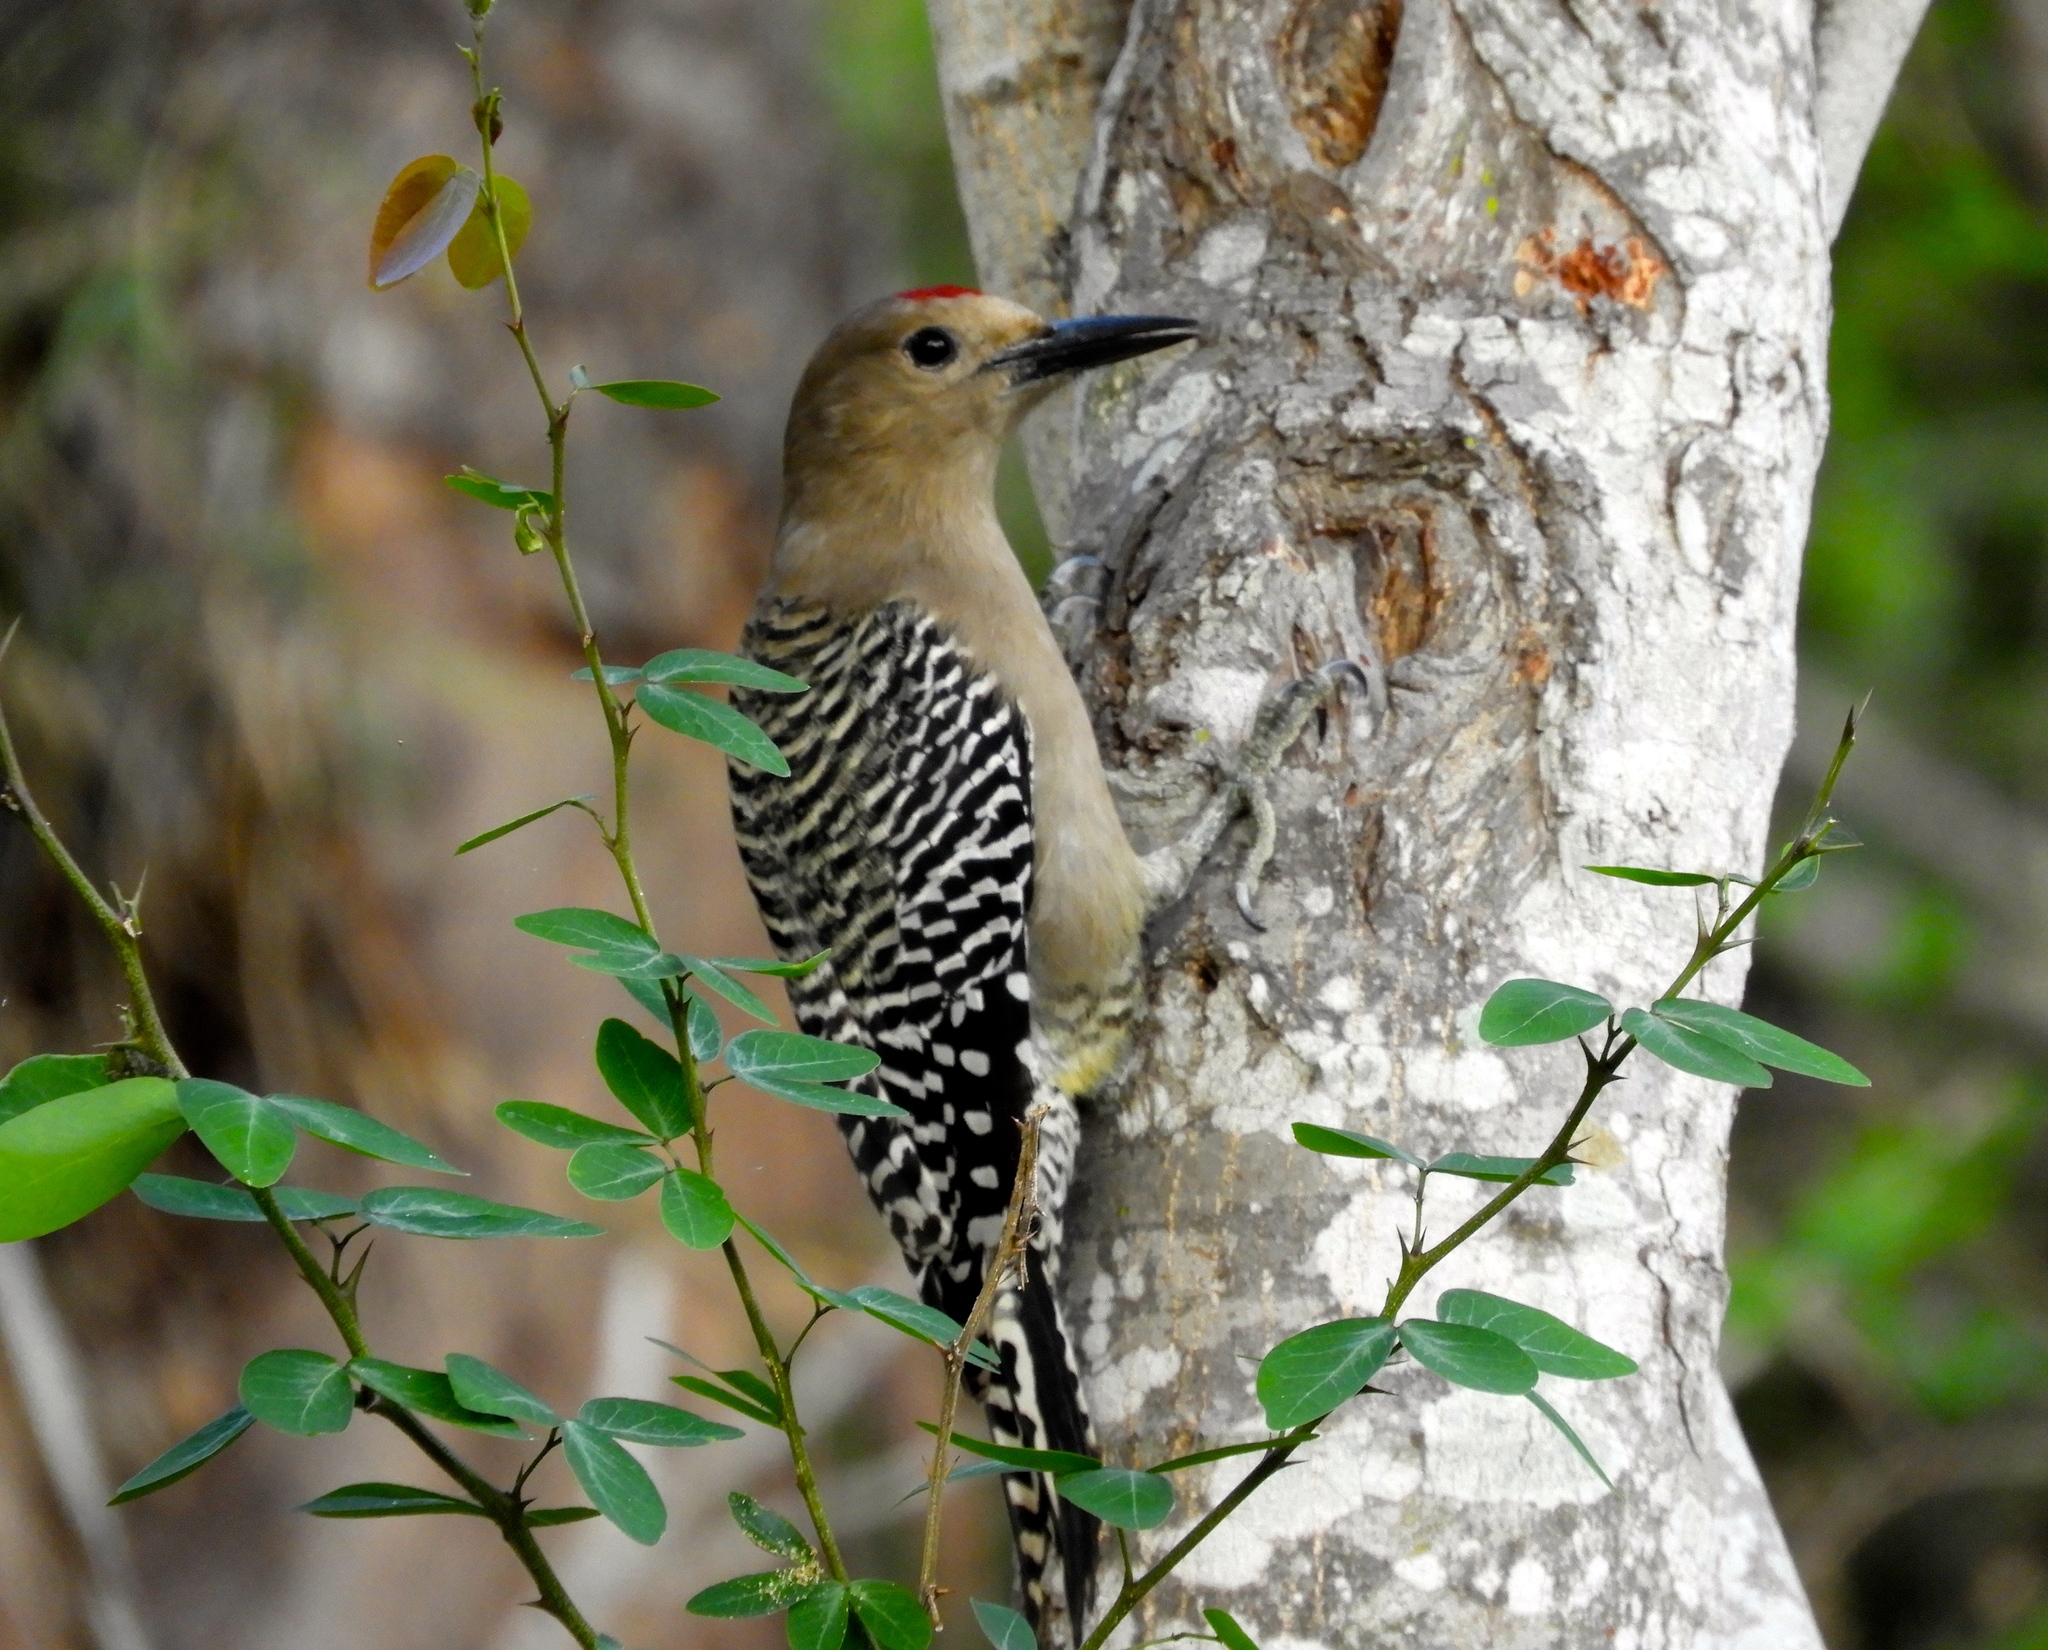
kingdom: Animalia
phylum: Chordata
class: Aves
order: Piciformes
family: Picidae
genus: Melanerpes
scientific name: Melanerpes uropygialis
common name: Gila woodpecker
